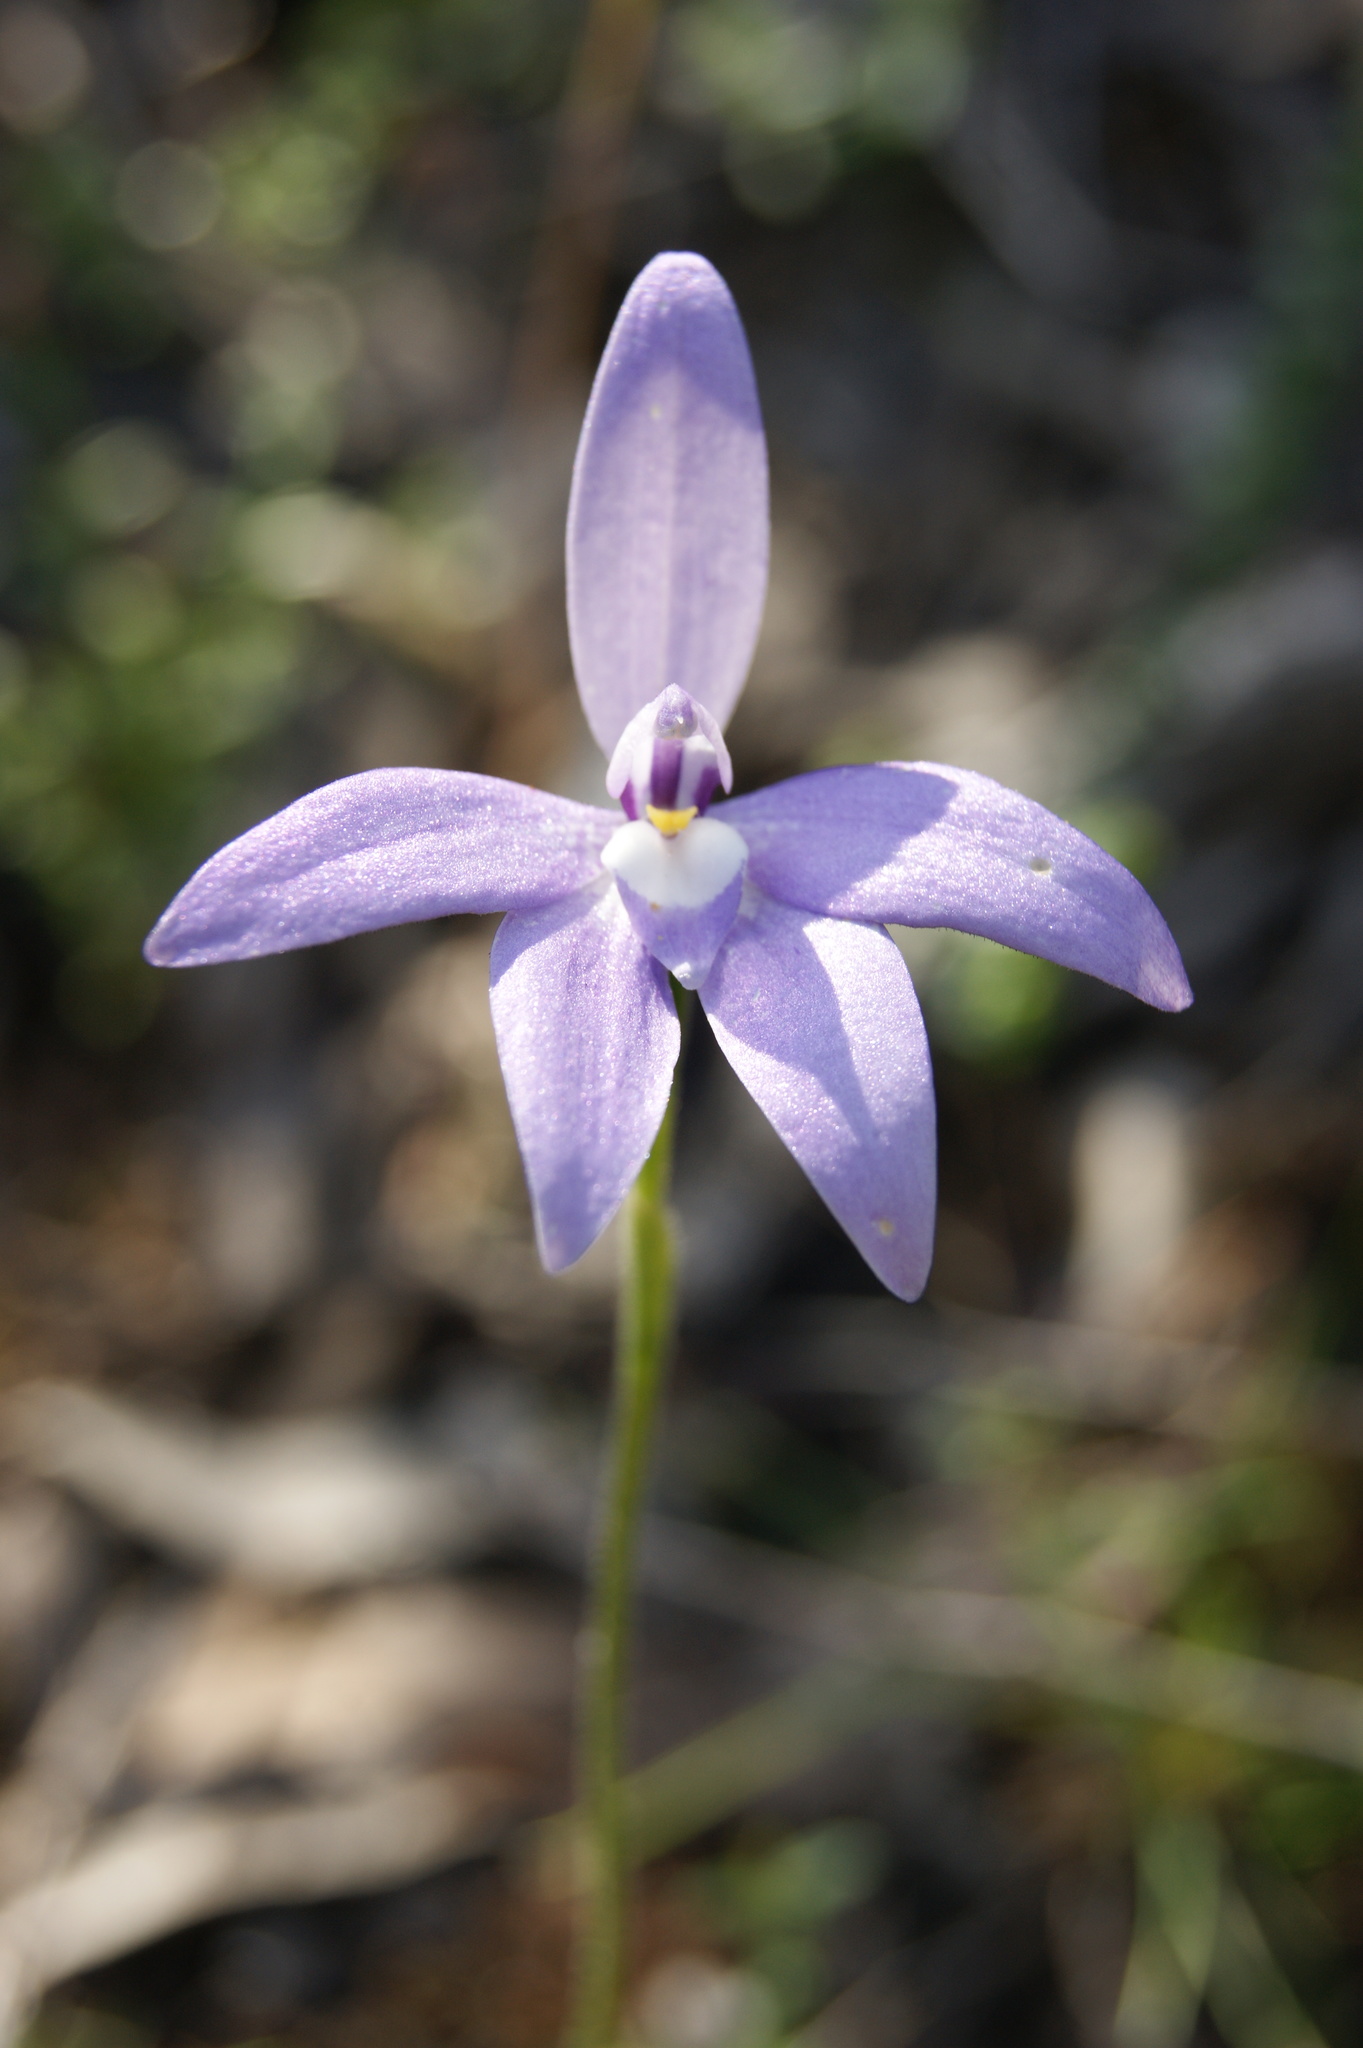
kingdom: Plantae
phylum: Tracheophyta
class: Liliopsida
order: Asparagales
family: Orchidaceae
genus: Caladenia
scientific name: Caladenia major
